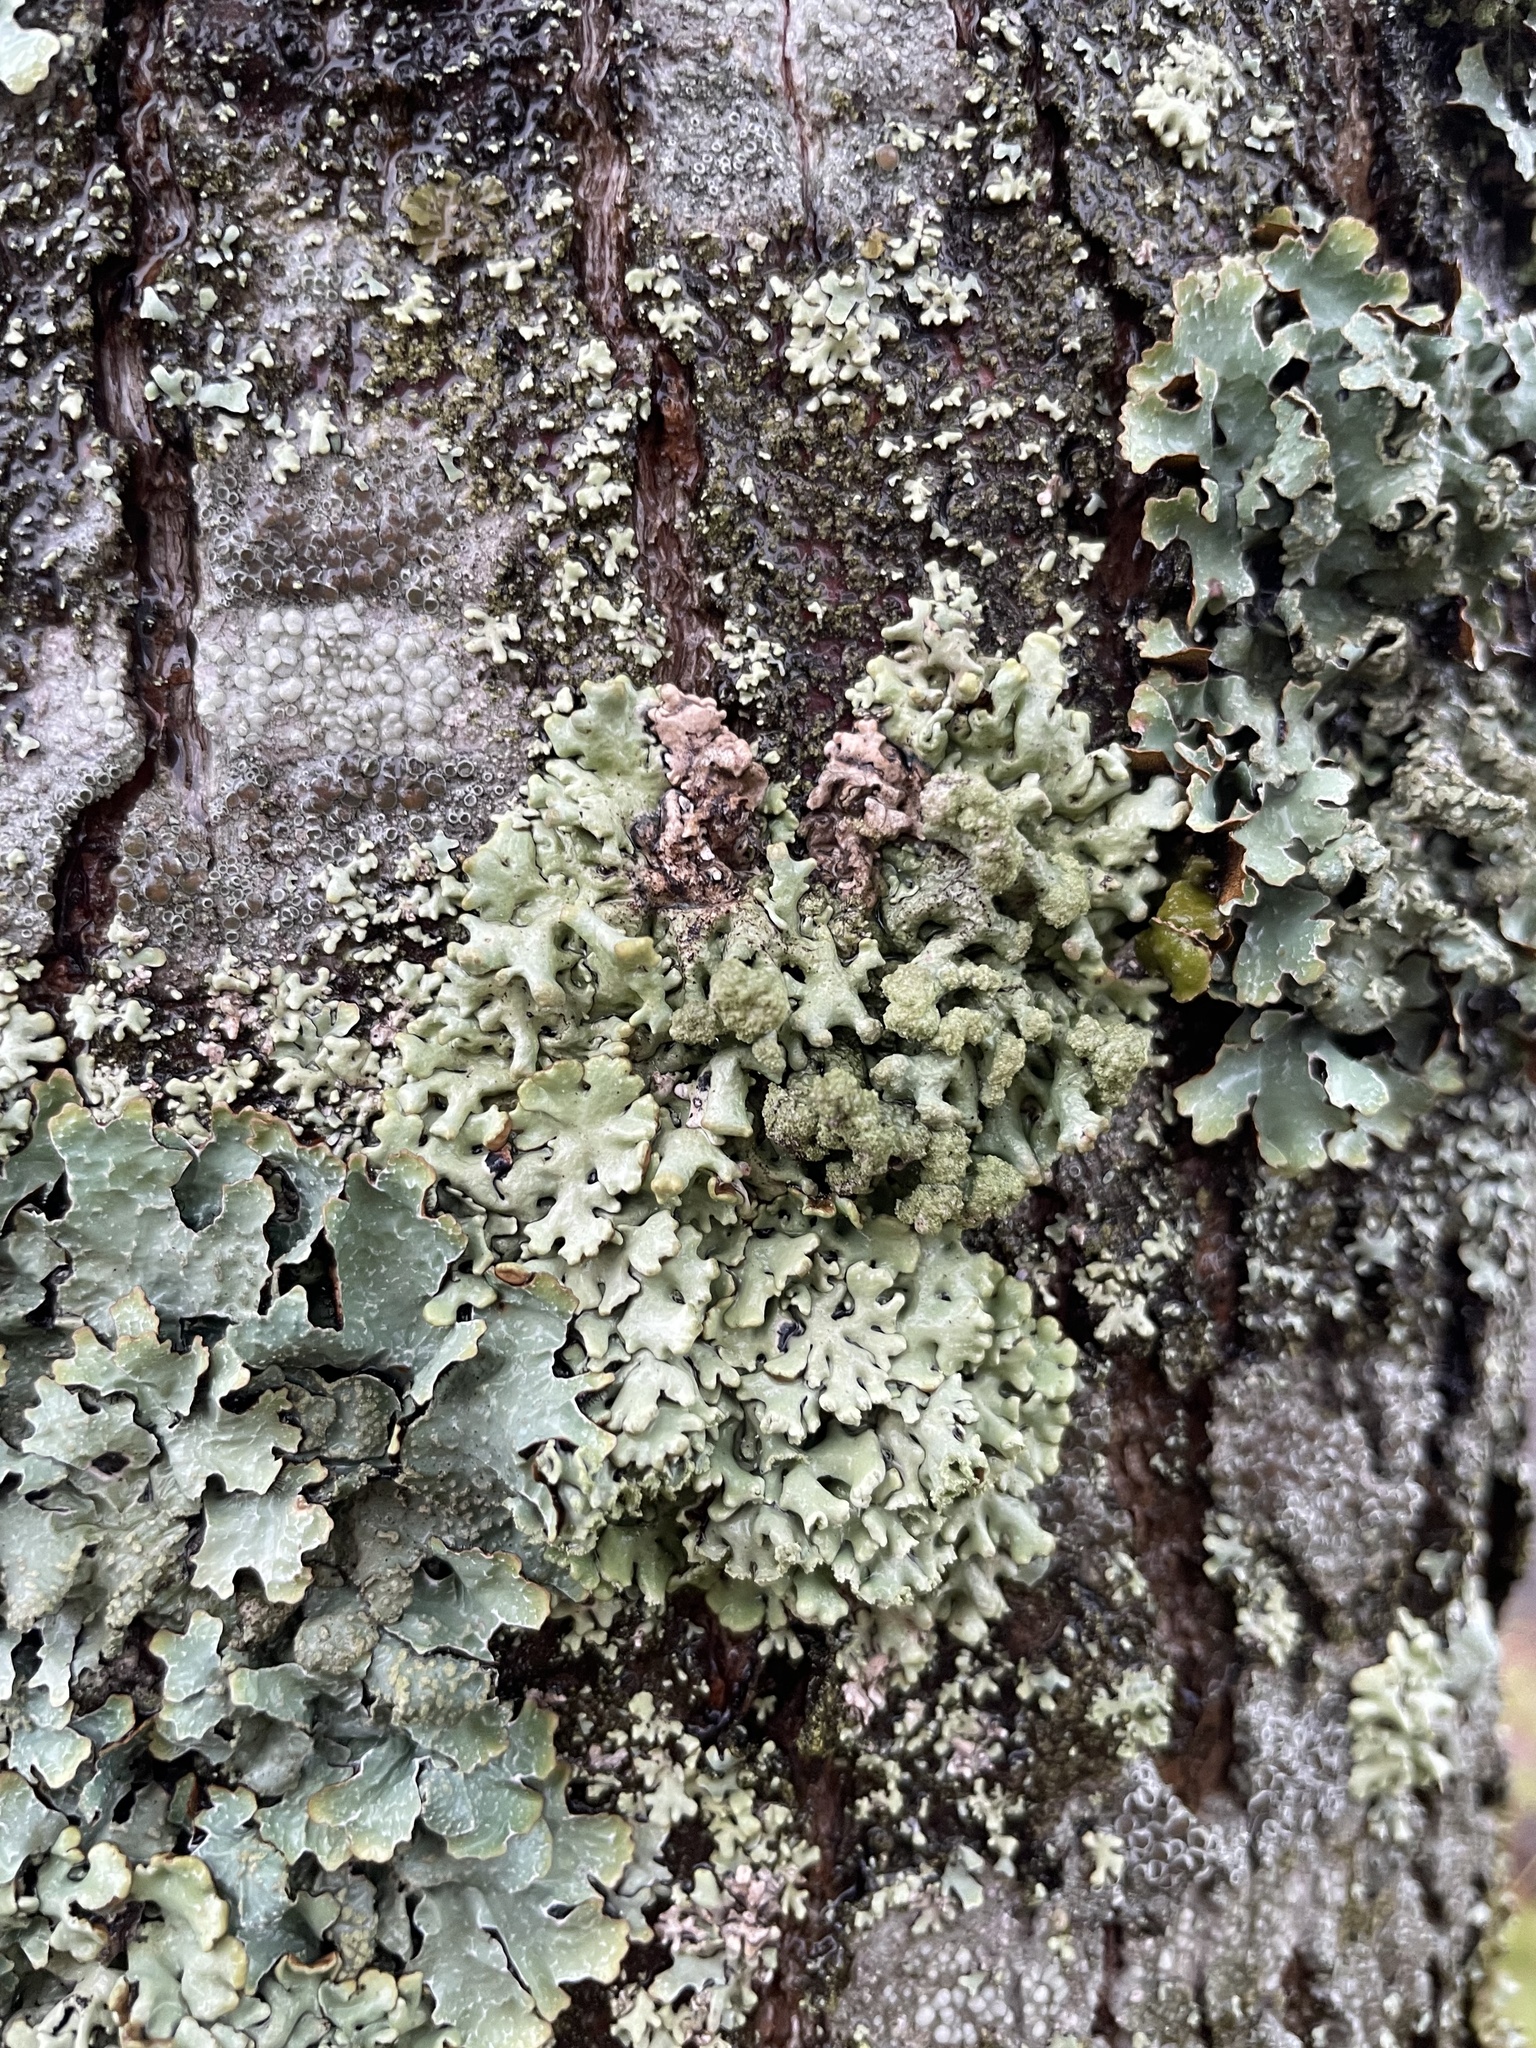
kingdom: Fungi
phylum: Ascomycota
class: Lecanoromycetes
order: Lecanorales
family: Parmeliaceae
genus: Hypogymnia
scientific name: Hypogymnia physodes
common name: Dark crottle
